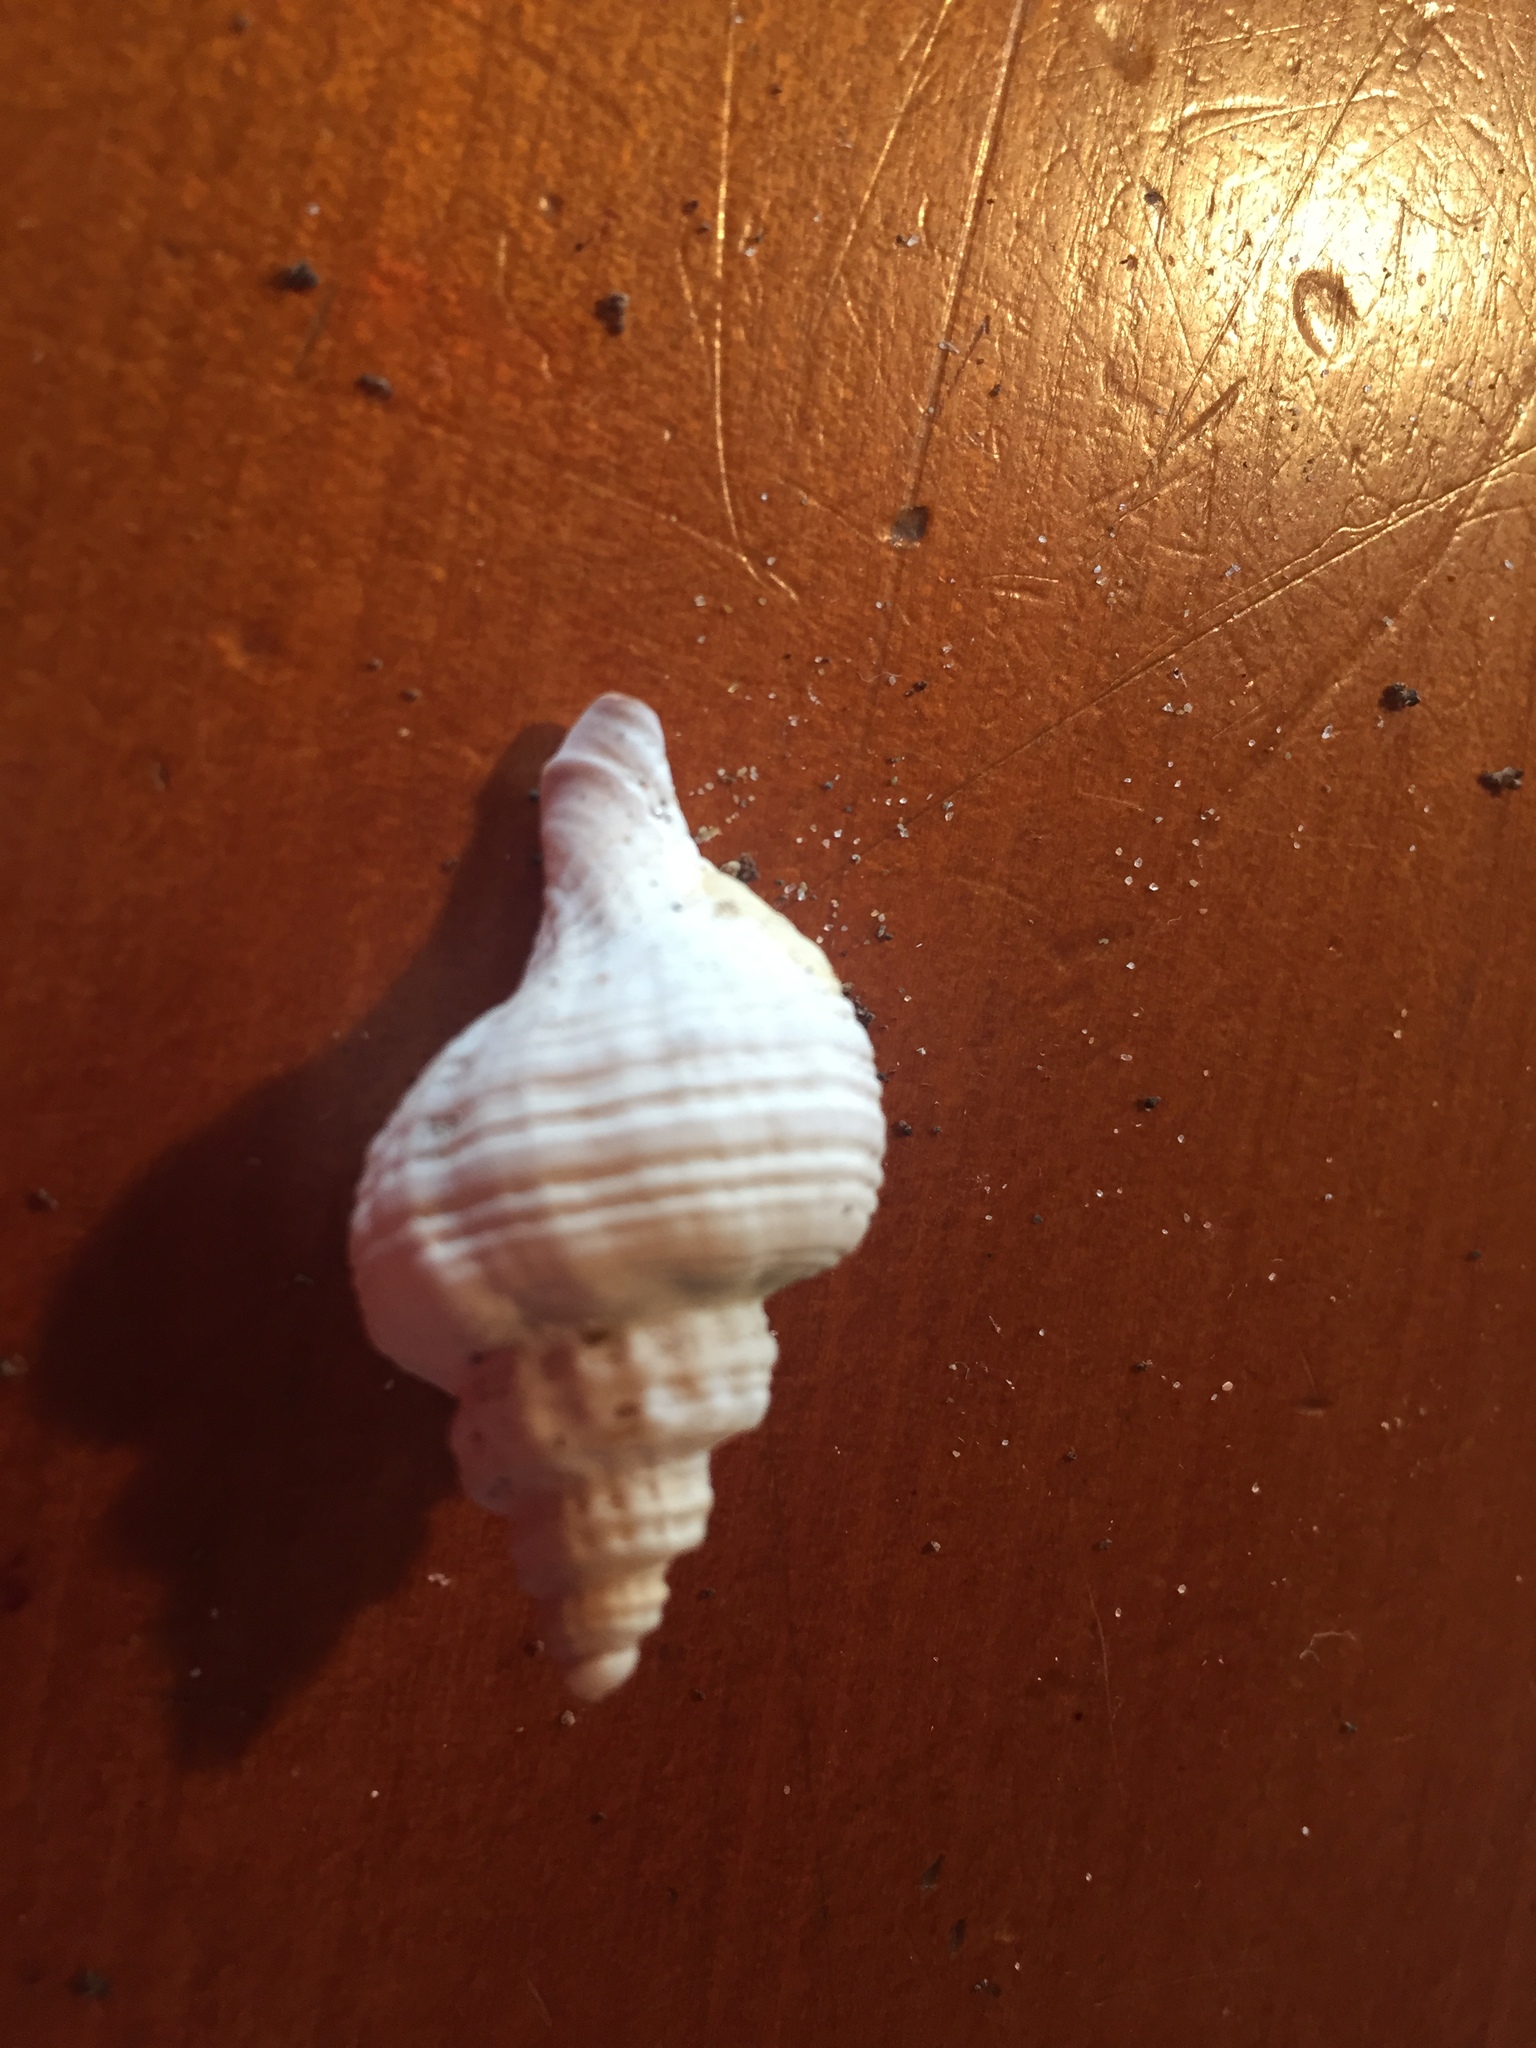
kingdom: Animalia
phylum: Mollusca
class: Gastropoda
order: Neogastropoda
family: Muricidae
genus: Zeatrophon
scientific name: Zeatrophon ambiguus
